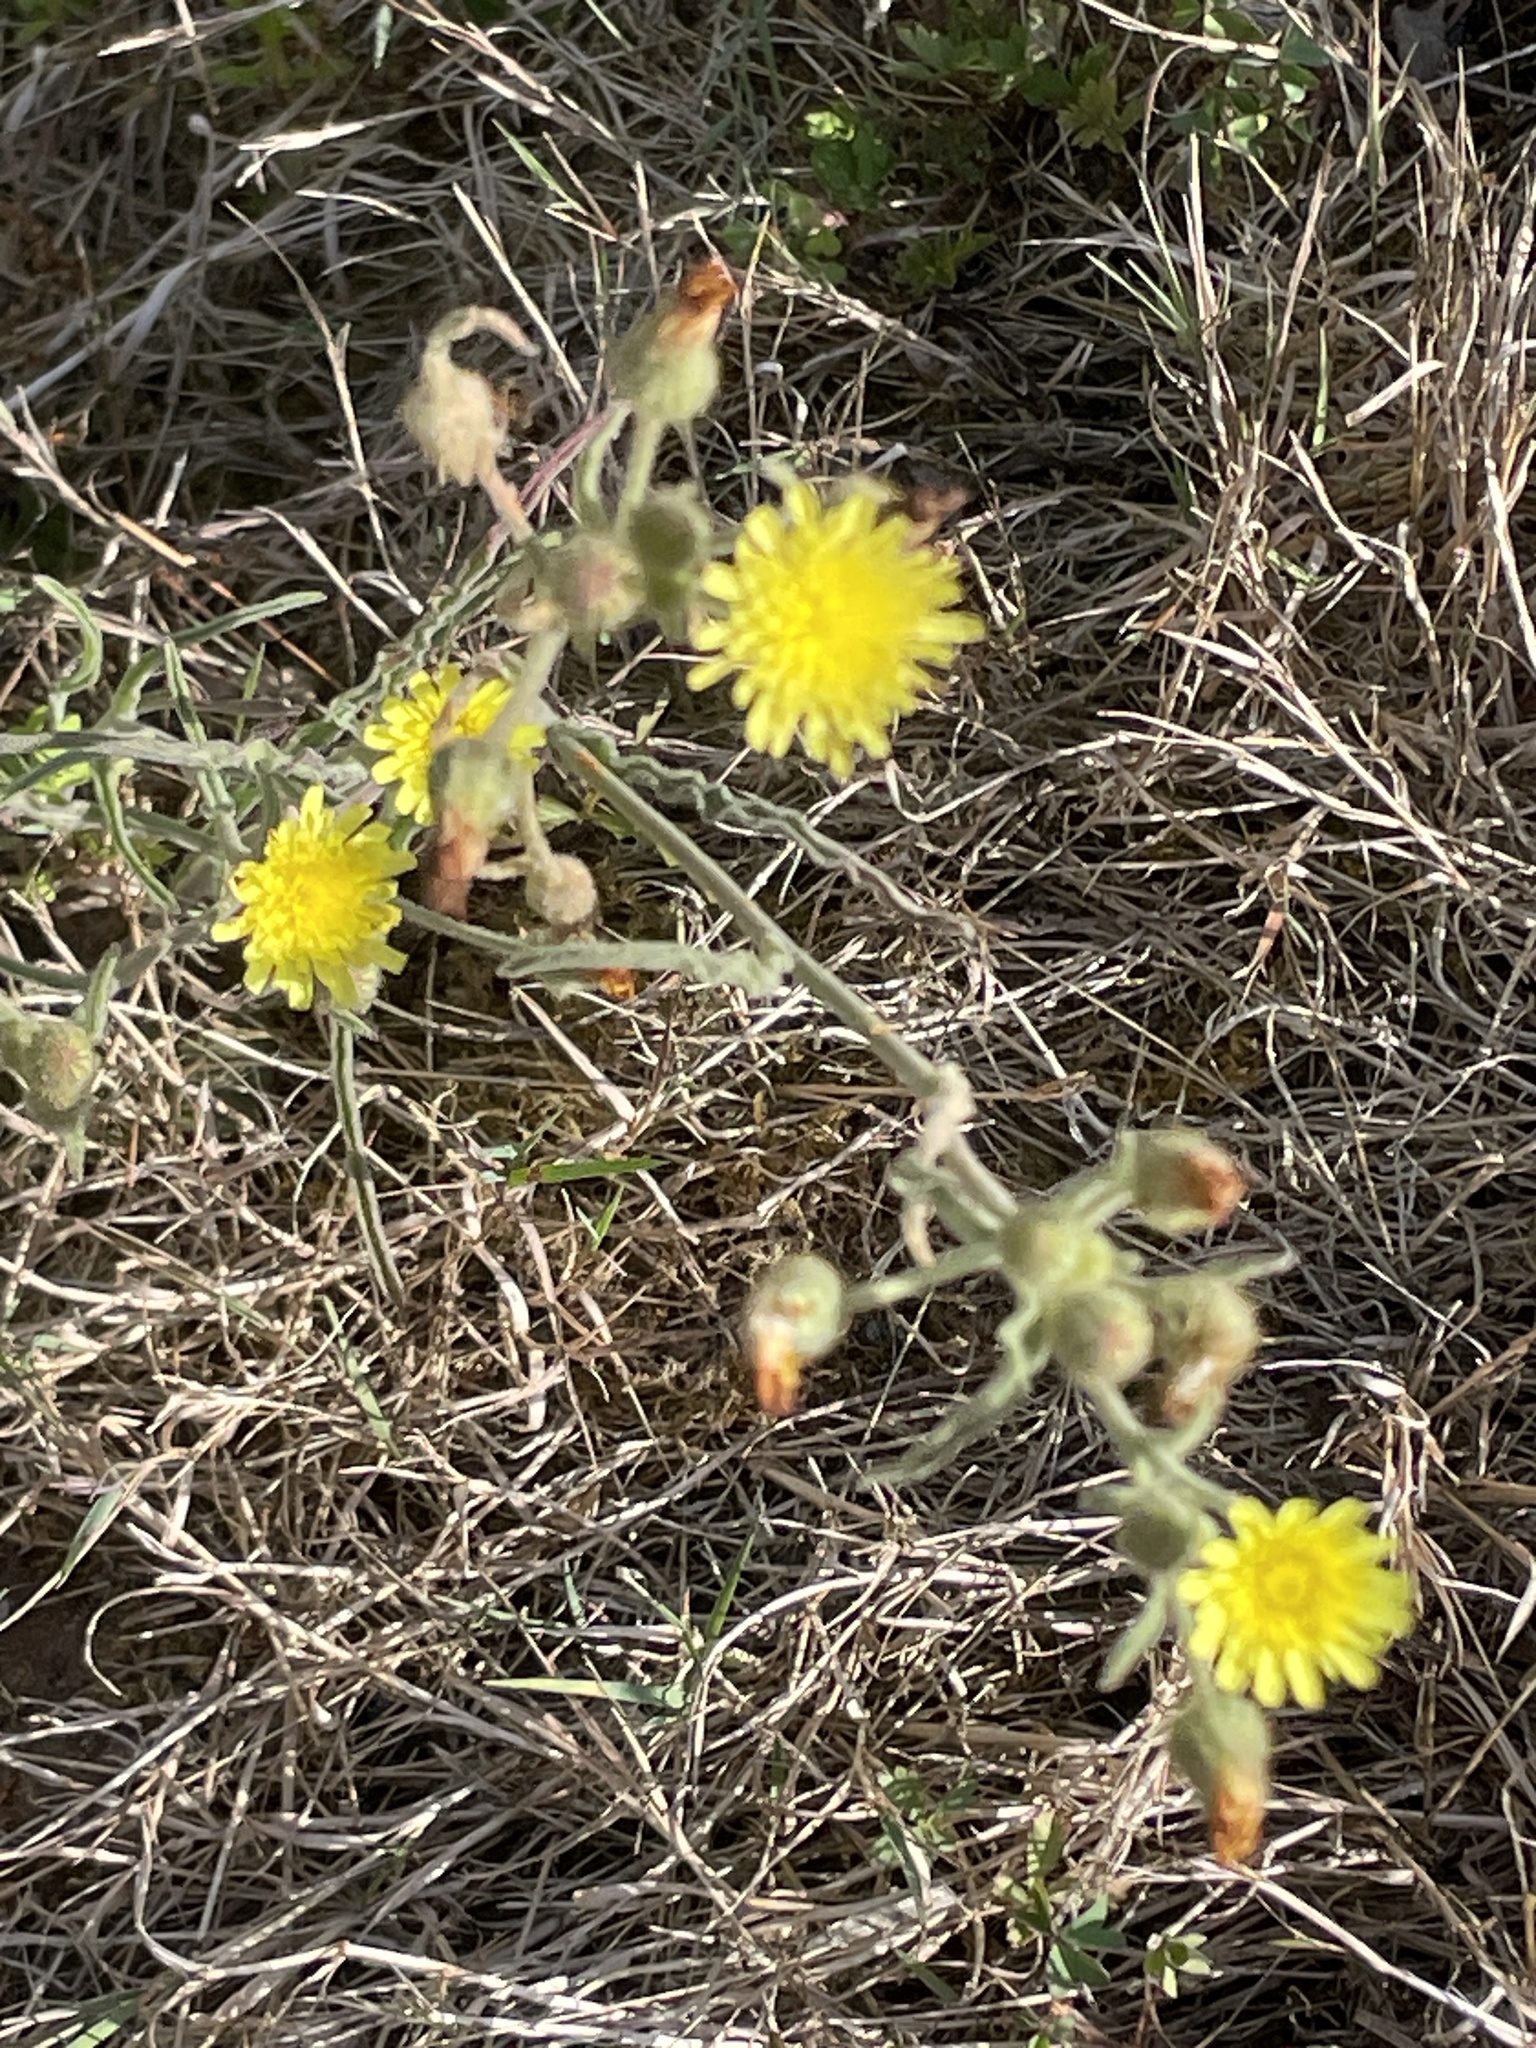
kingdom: Plantae
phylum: Tracheophyta
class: Magnoliopsida
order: Asterales
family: Asteraceae
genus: Andryala
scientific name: Andryala integrifolia
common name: Common andryala
